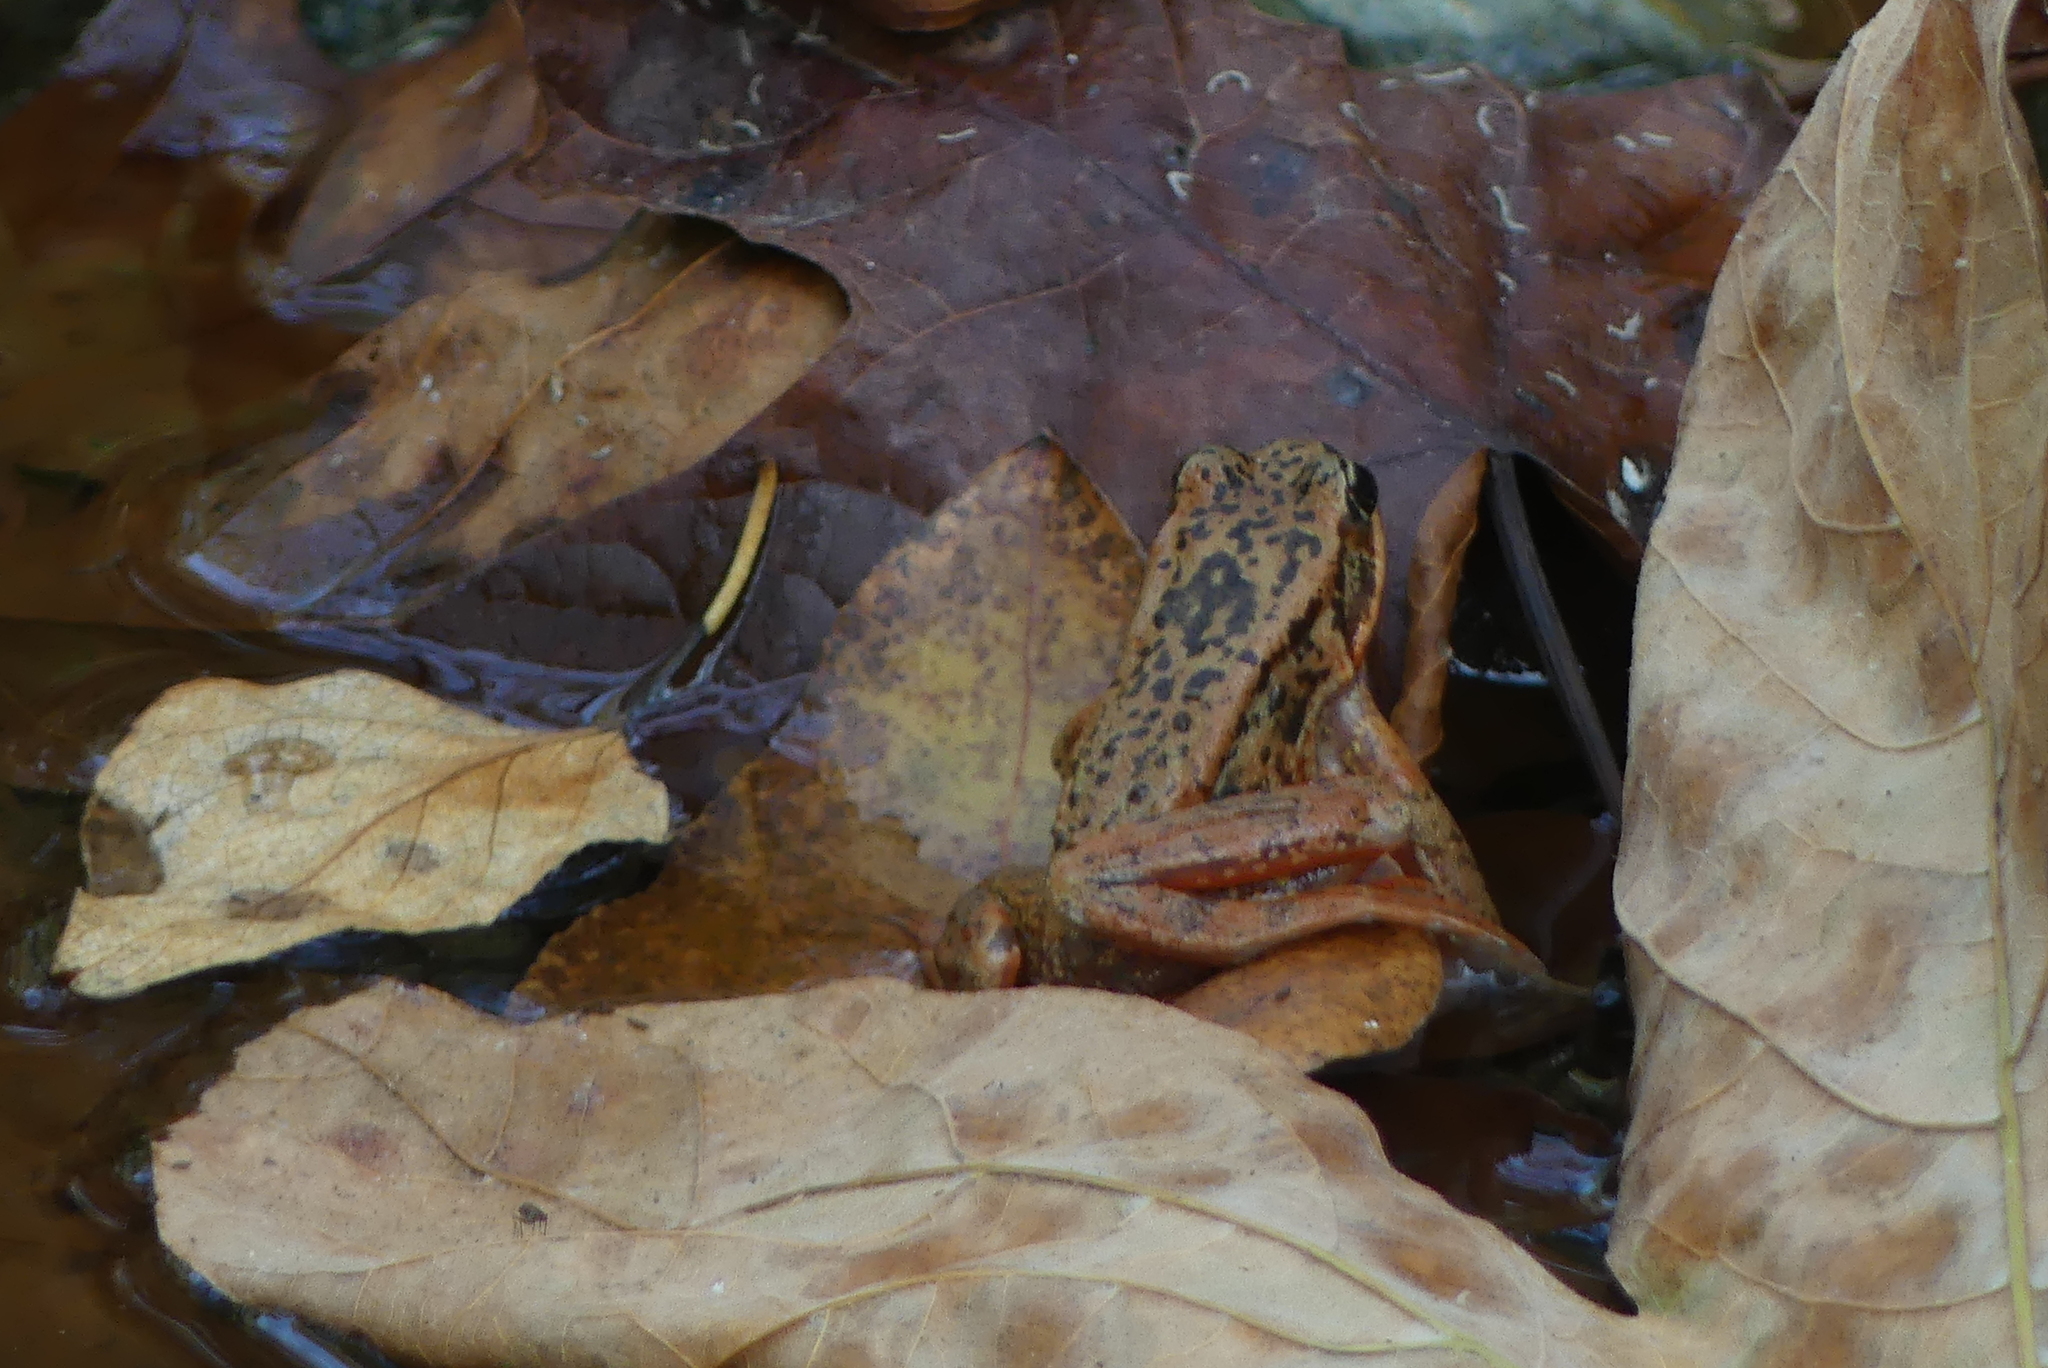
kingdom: Animalia
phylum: Chordata
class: Amphibia
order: Anura
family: Ranidae
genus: Rana
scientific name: Rana aurora
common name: Red-legged frog
